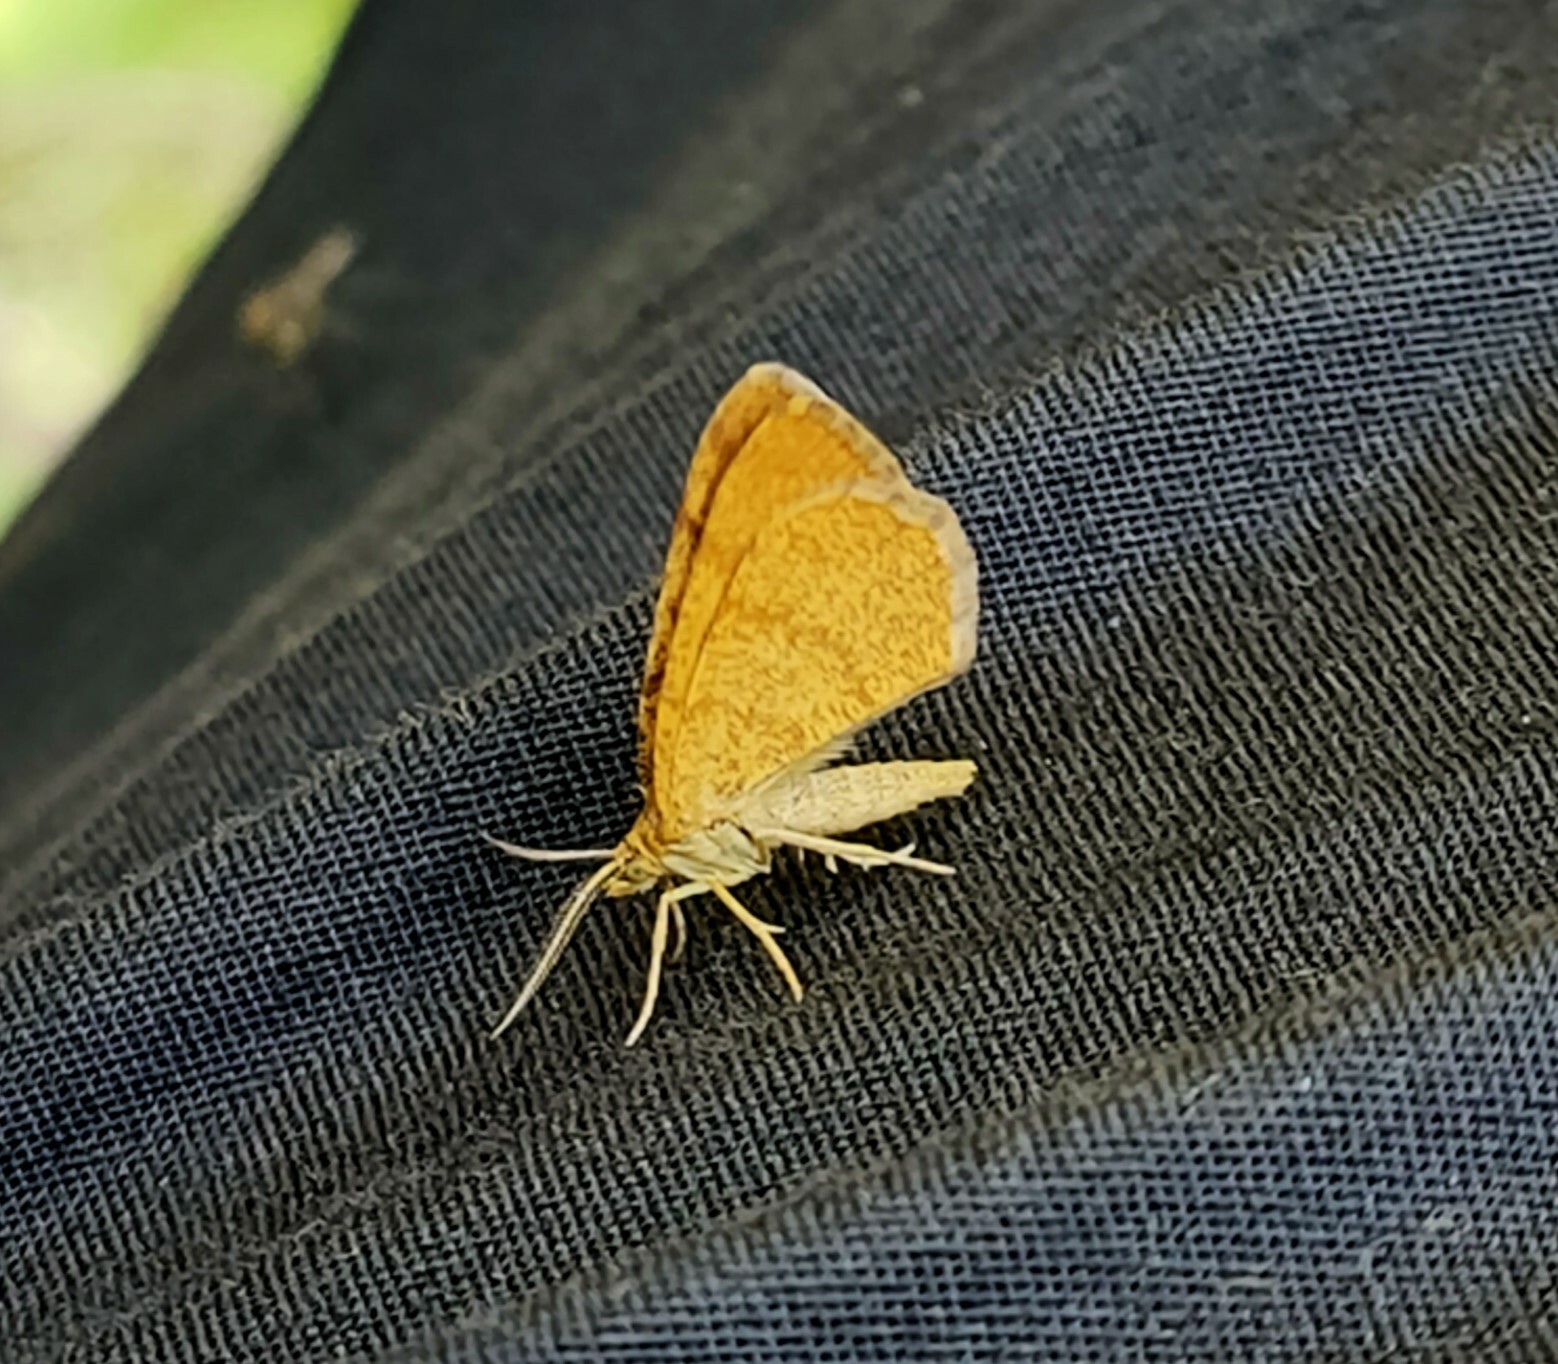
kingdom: Animalia
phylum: Arthropoda
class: Insecta
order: Lepidoptera
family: Geometridae
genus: Macaria
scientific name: Macaria brunneata
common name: Rannoch looper
